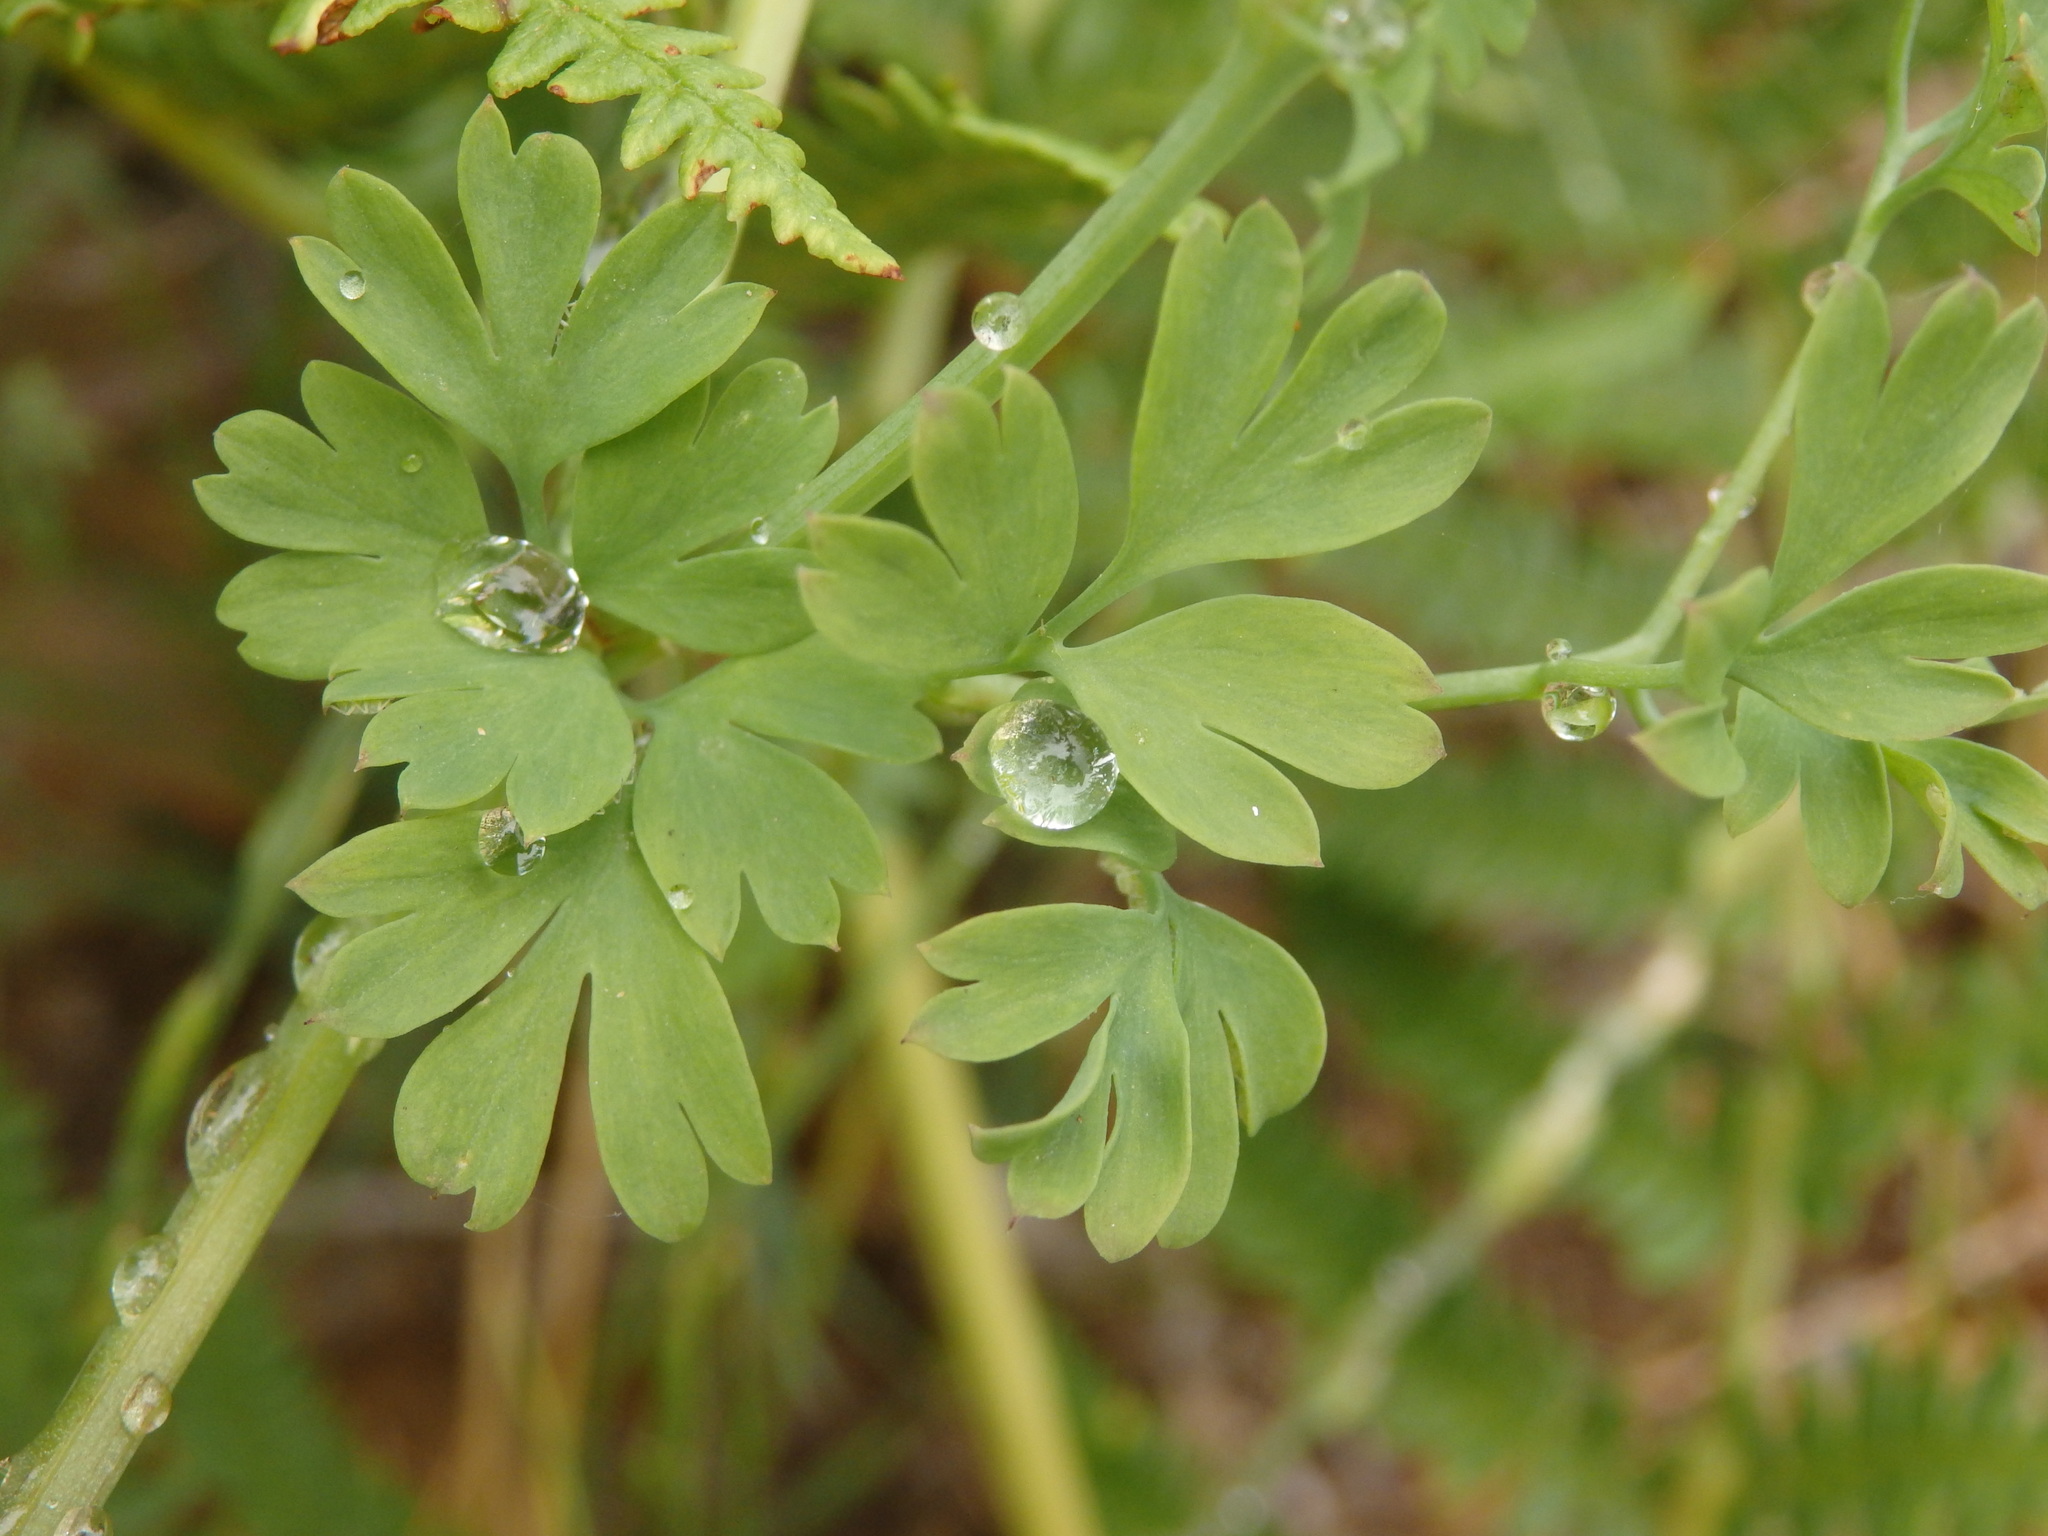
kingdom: Plantae
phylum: Tracheophyta
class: Magnoliopsida
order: Ranunculales
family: Papaveraceae
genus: Fumaria
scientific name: Fumaria capreolata
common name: White ramping-fumitory
